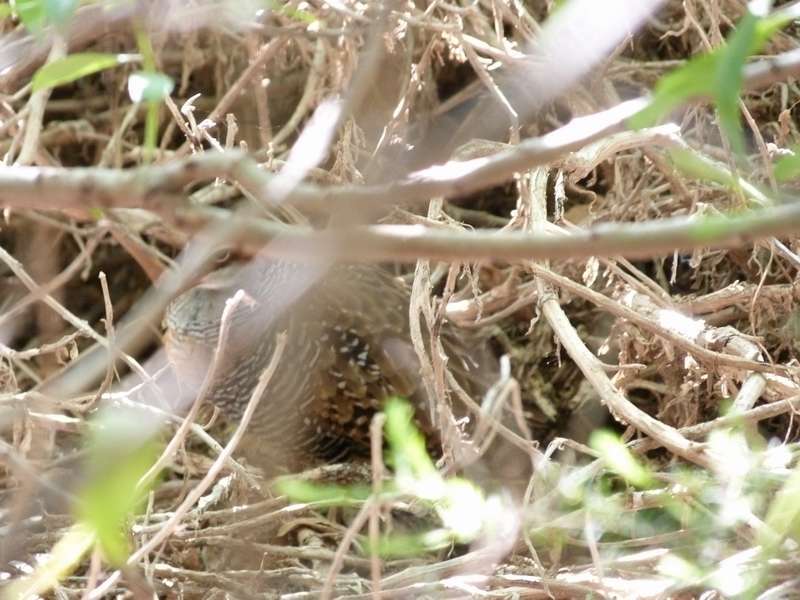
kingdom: Animalia
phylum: Chordata
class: Aves
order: Gruiformes
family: Rallidae
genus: Gallirallus
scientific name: Gallirallus philippensis
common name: Buff-banded rail
